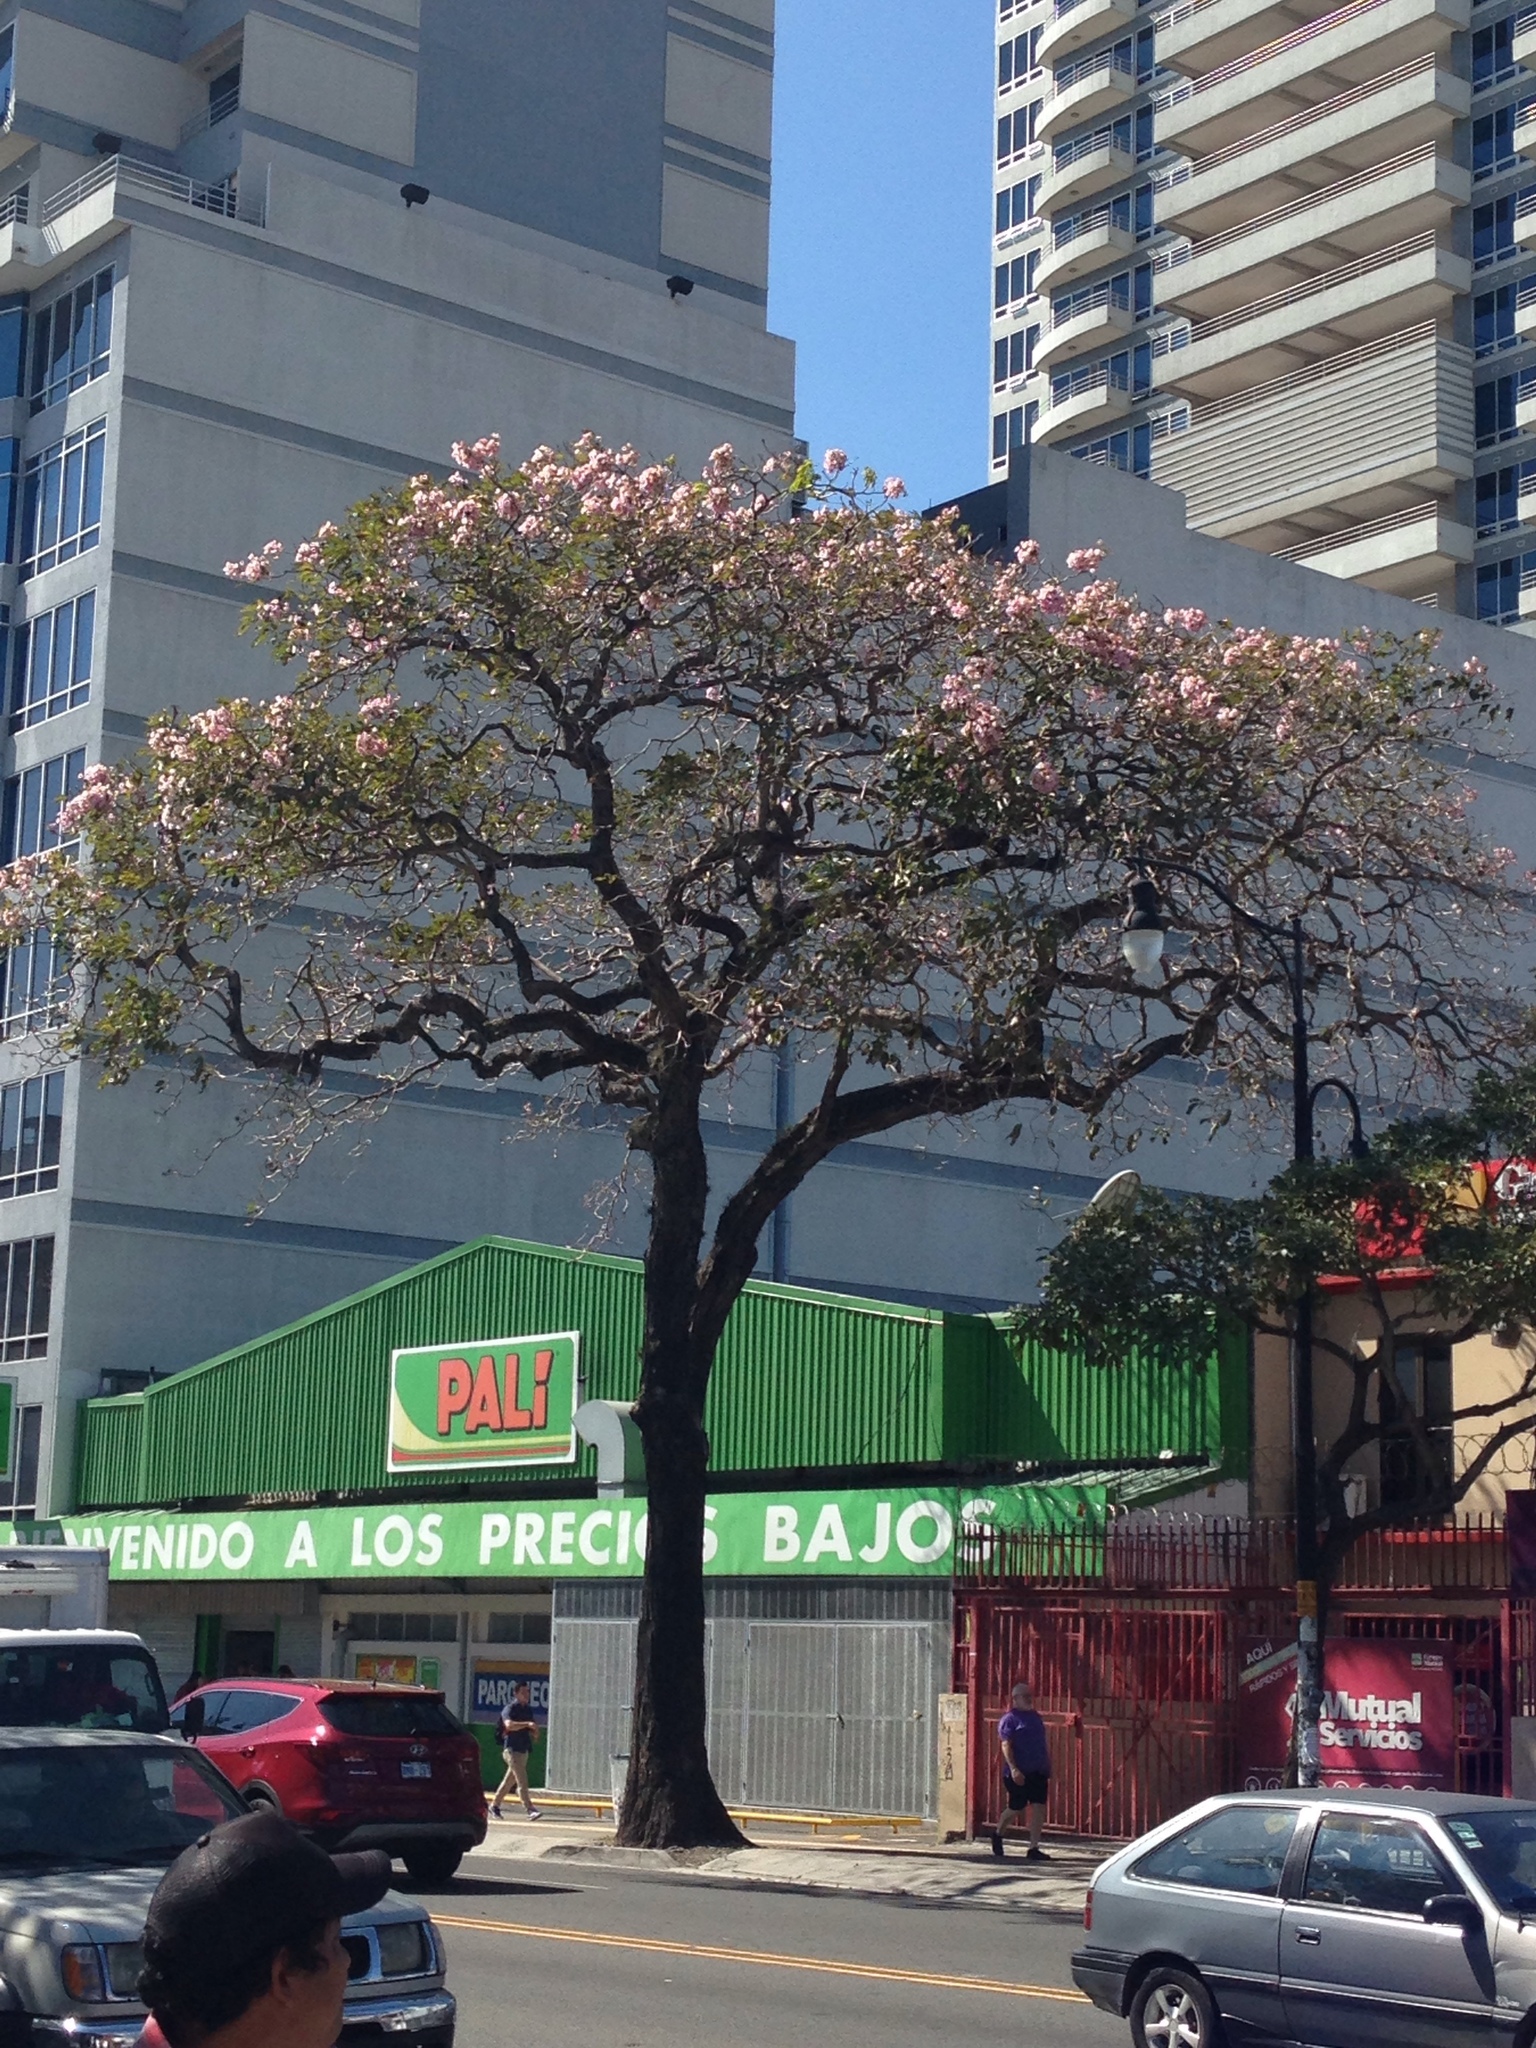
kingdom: Plantae
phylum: Tracheophyta
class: Magnoliopsida
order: Lamiales
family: Bignoniaceae
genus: Tabebuia
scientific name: Tabebuia rosea
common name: Pink poui
